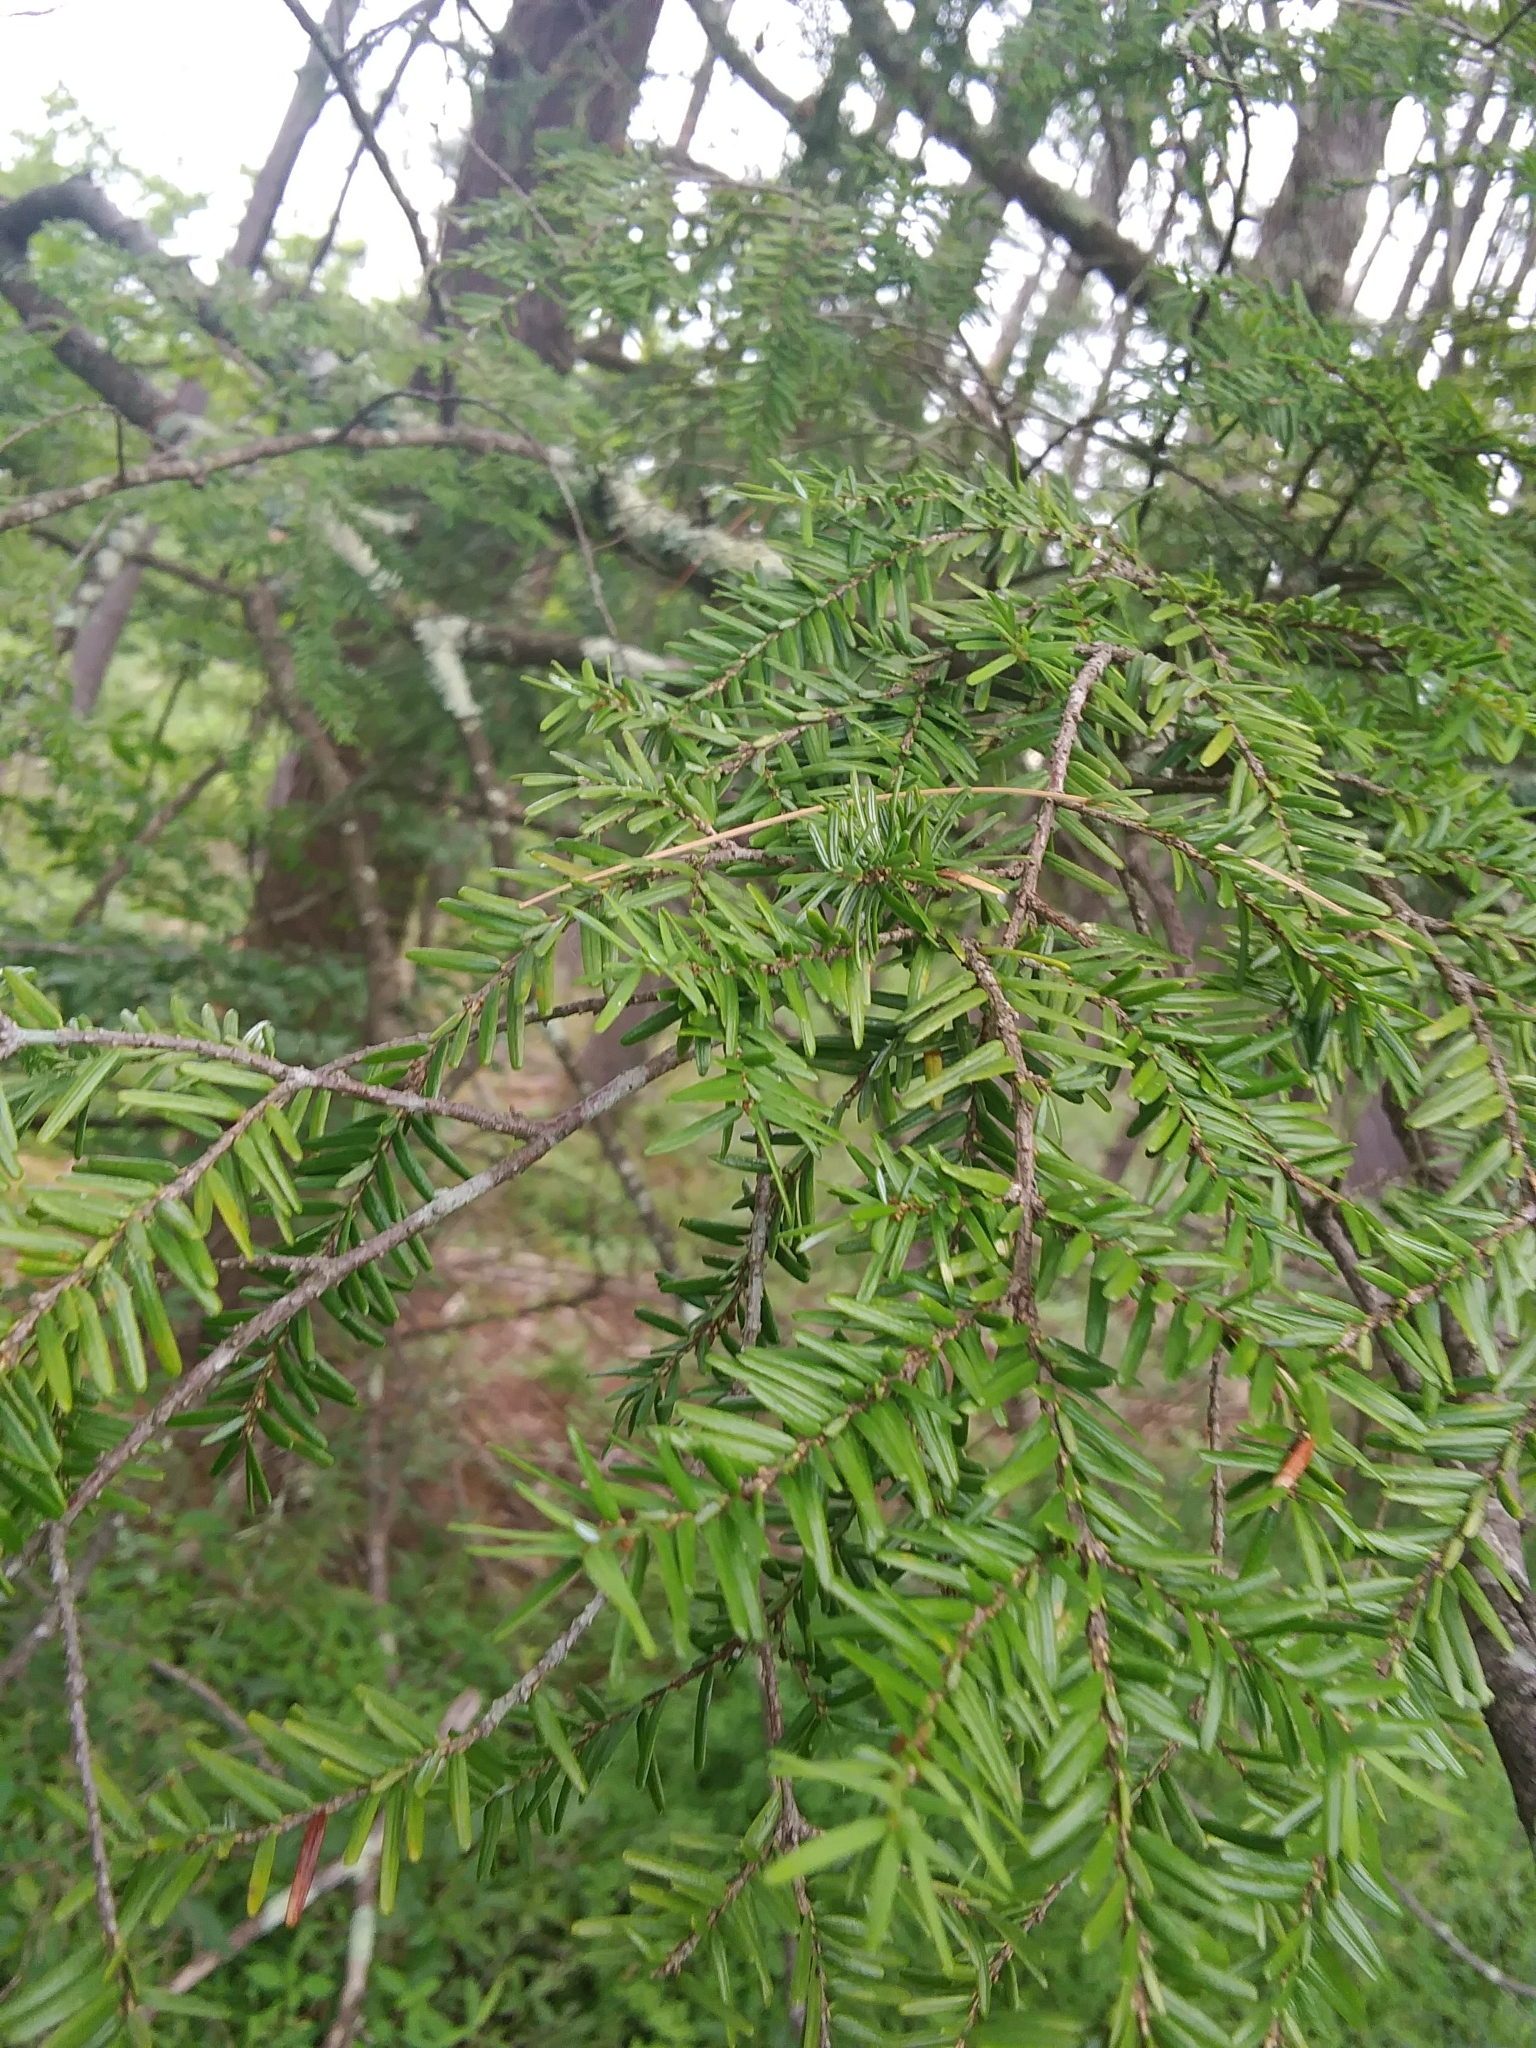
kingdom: Plantae
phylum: Tracheophyta
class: Pinopsida
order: Pinales
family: Pinaceae
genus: Tsuga
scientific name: Tsuga canadensis
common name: Eastern hemlock
